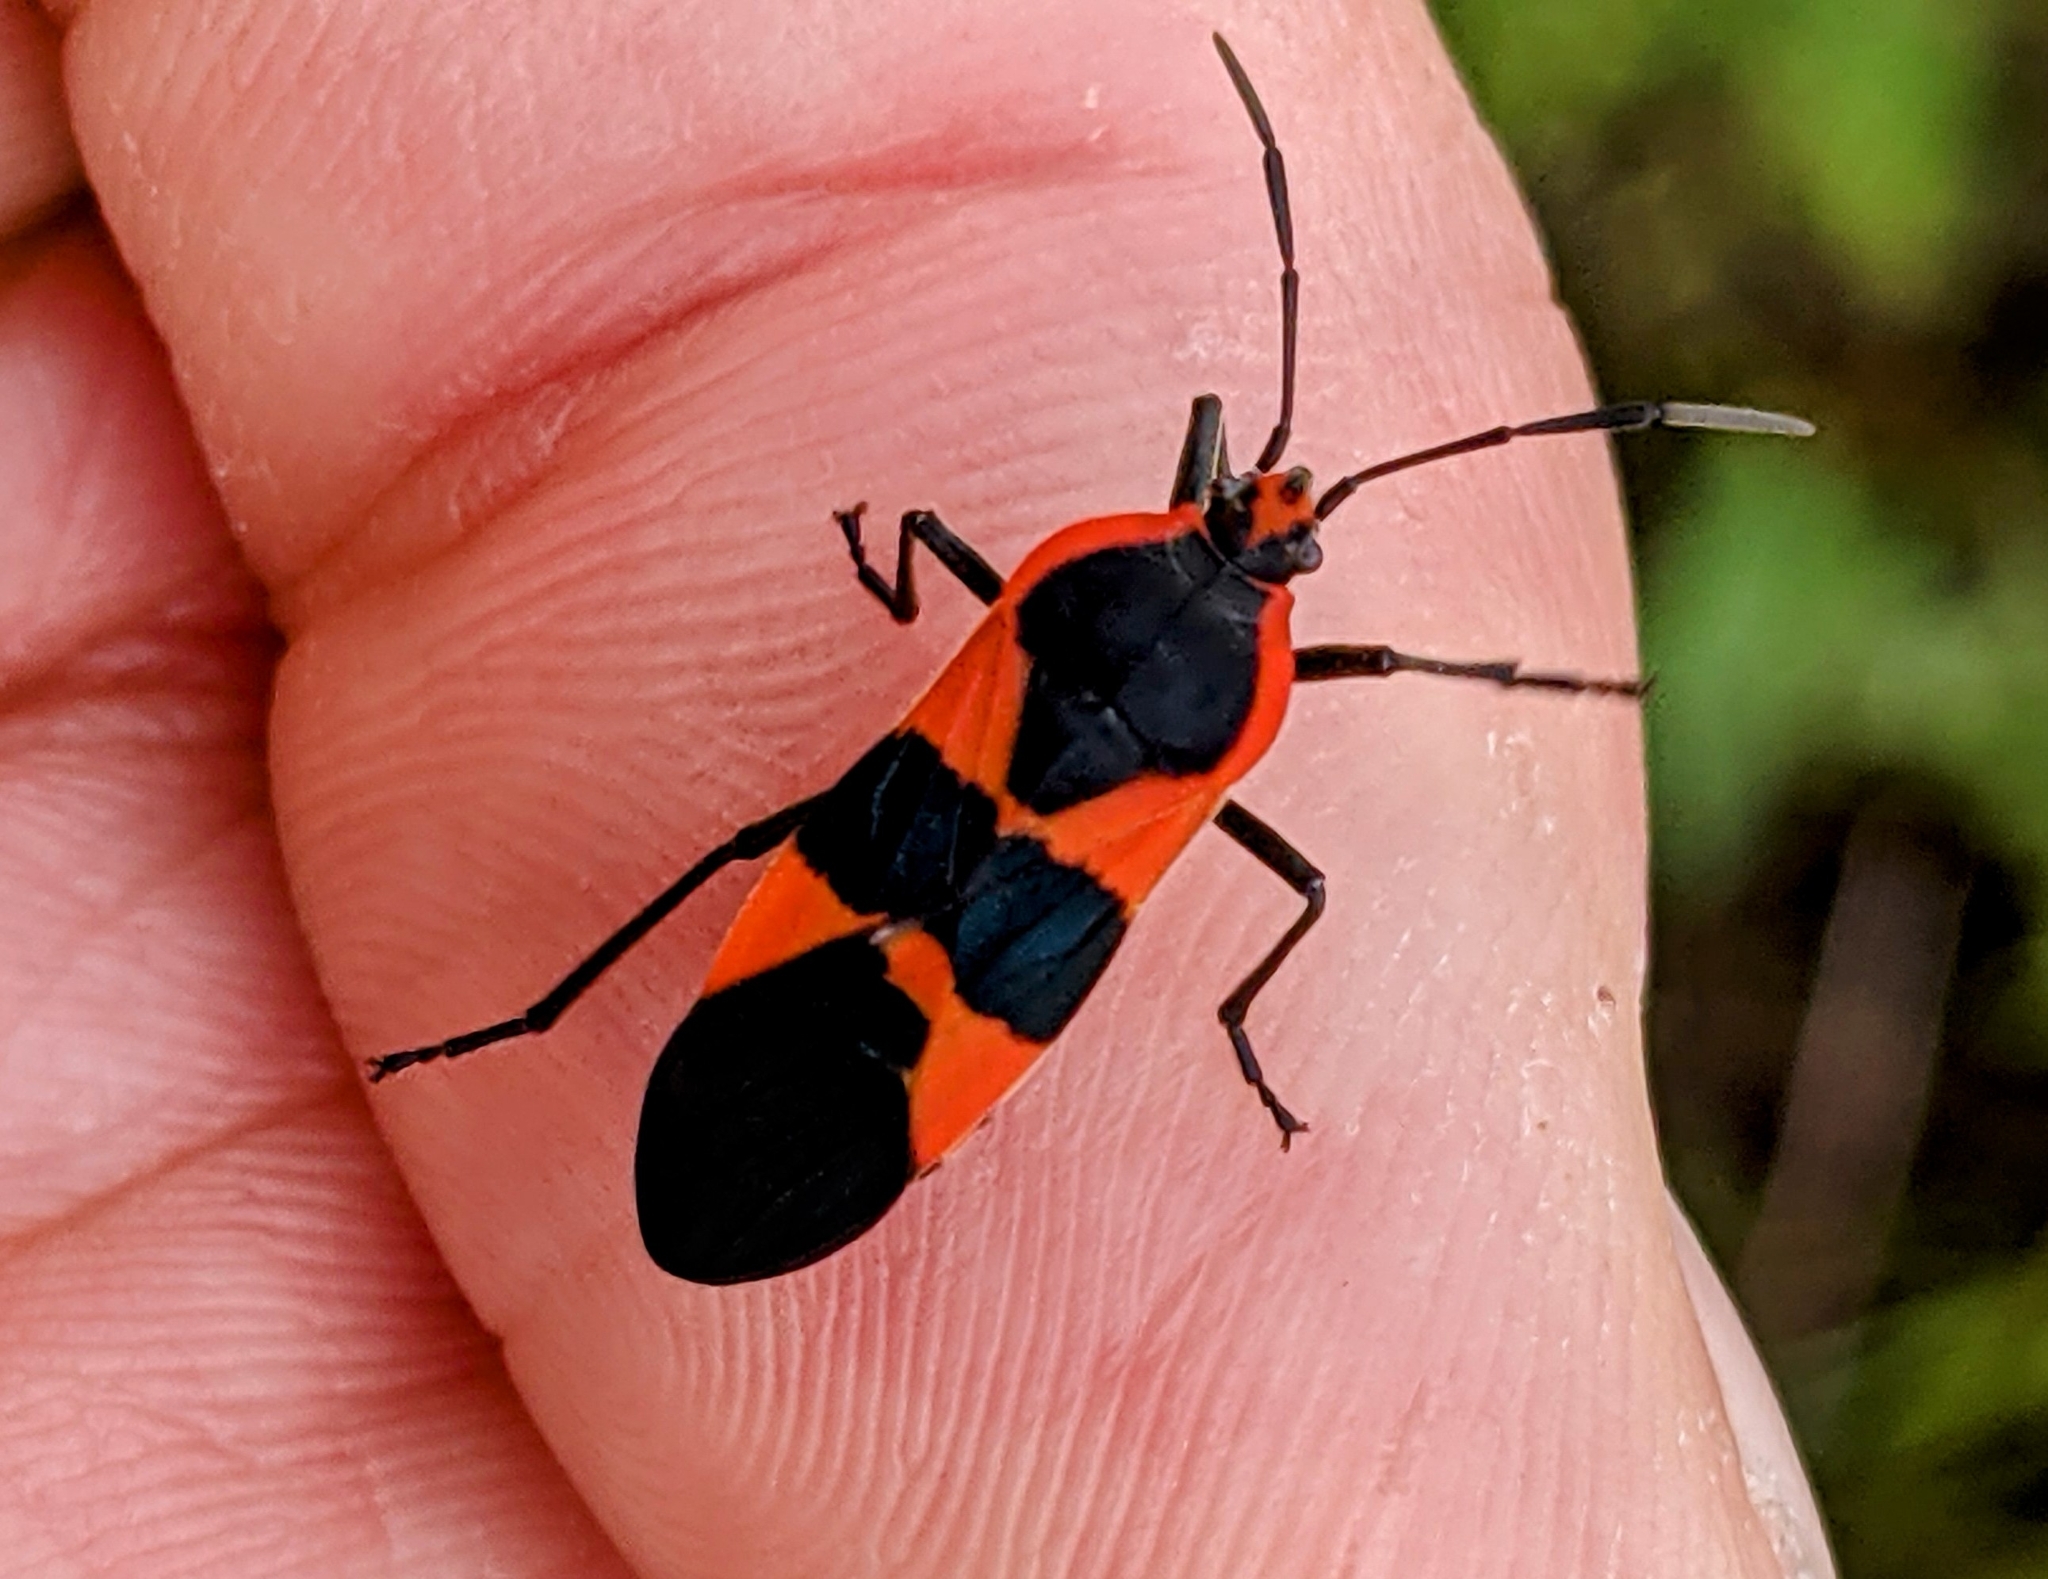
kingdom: Animalia
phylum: Arthropoda
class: Insecta
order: Hemiptera
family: Lygaeidae
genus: Oncopeltus
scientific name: Oncopeltus fasciatus
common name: Large milkweed bug
